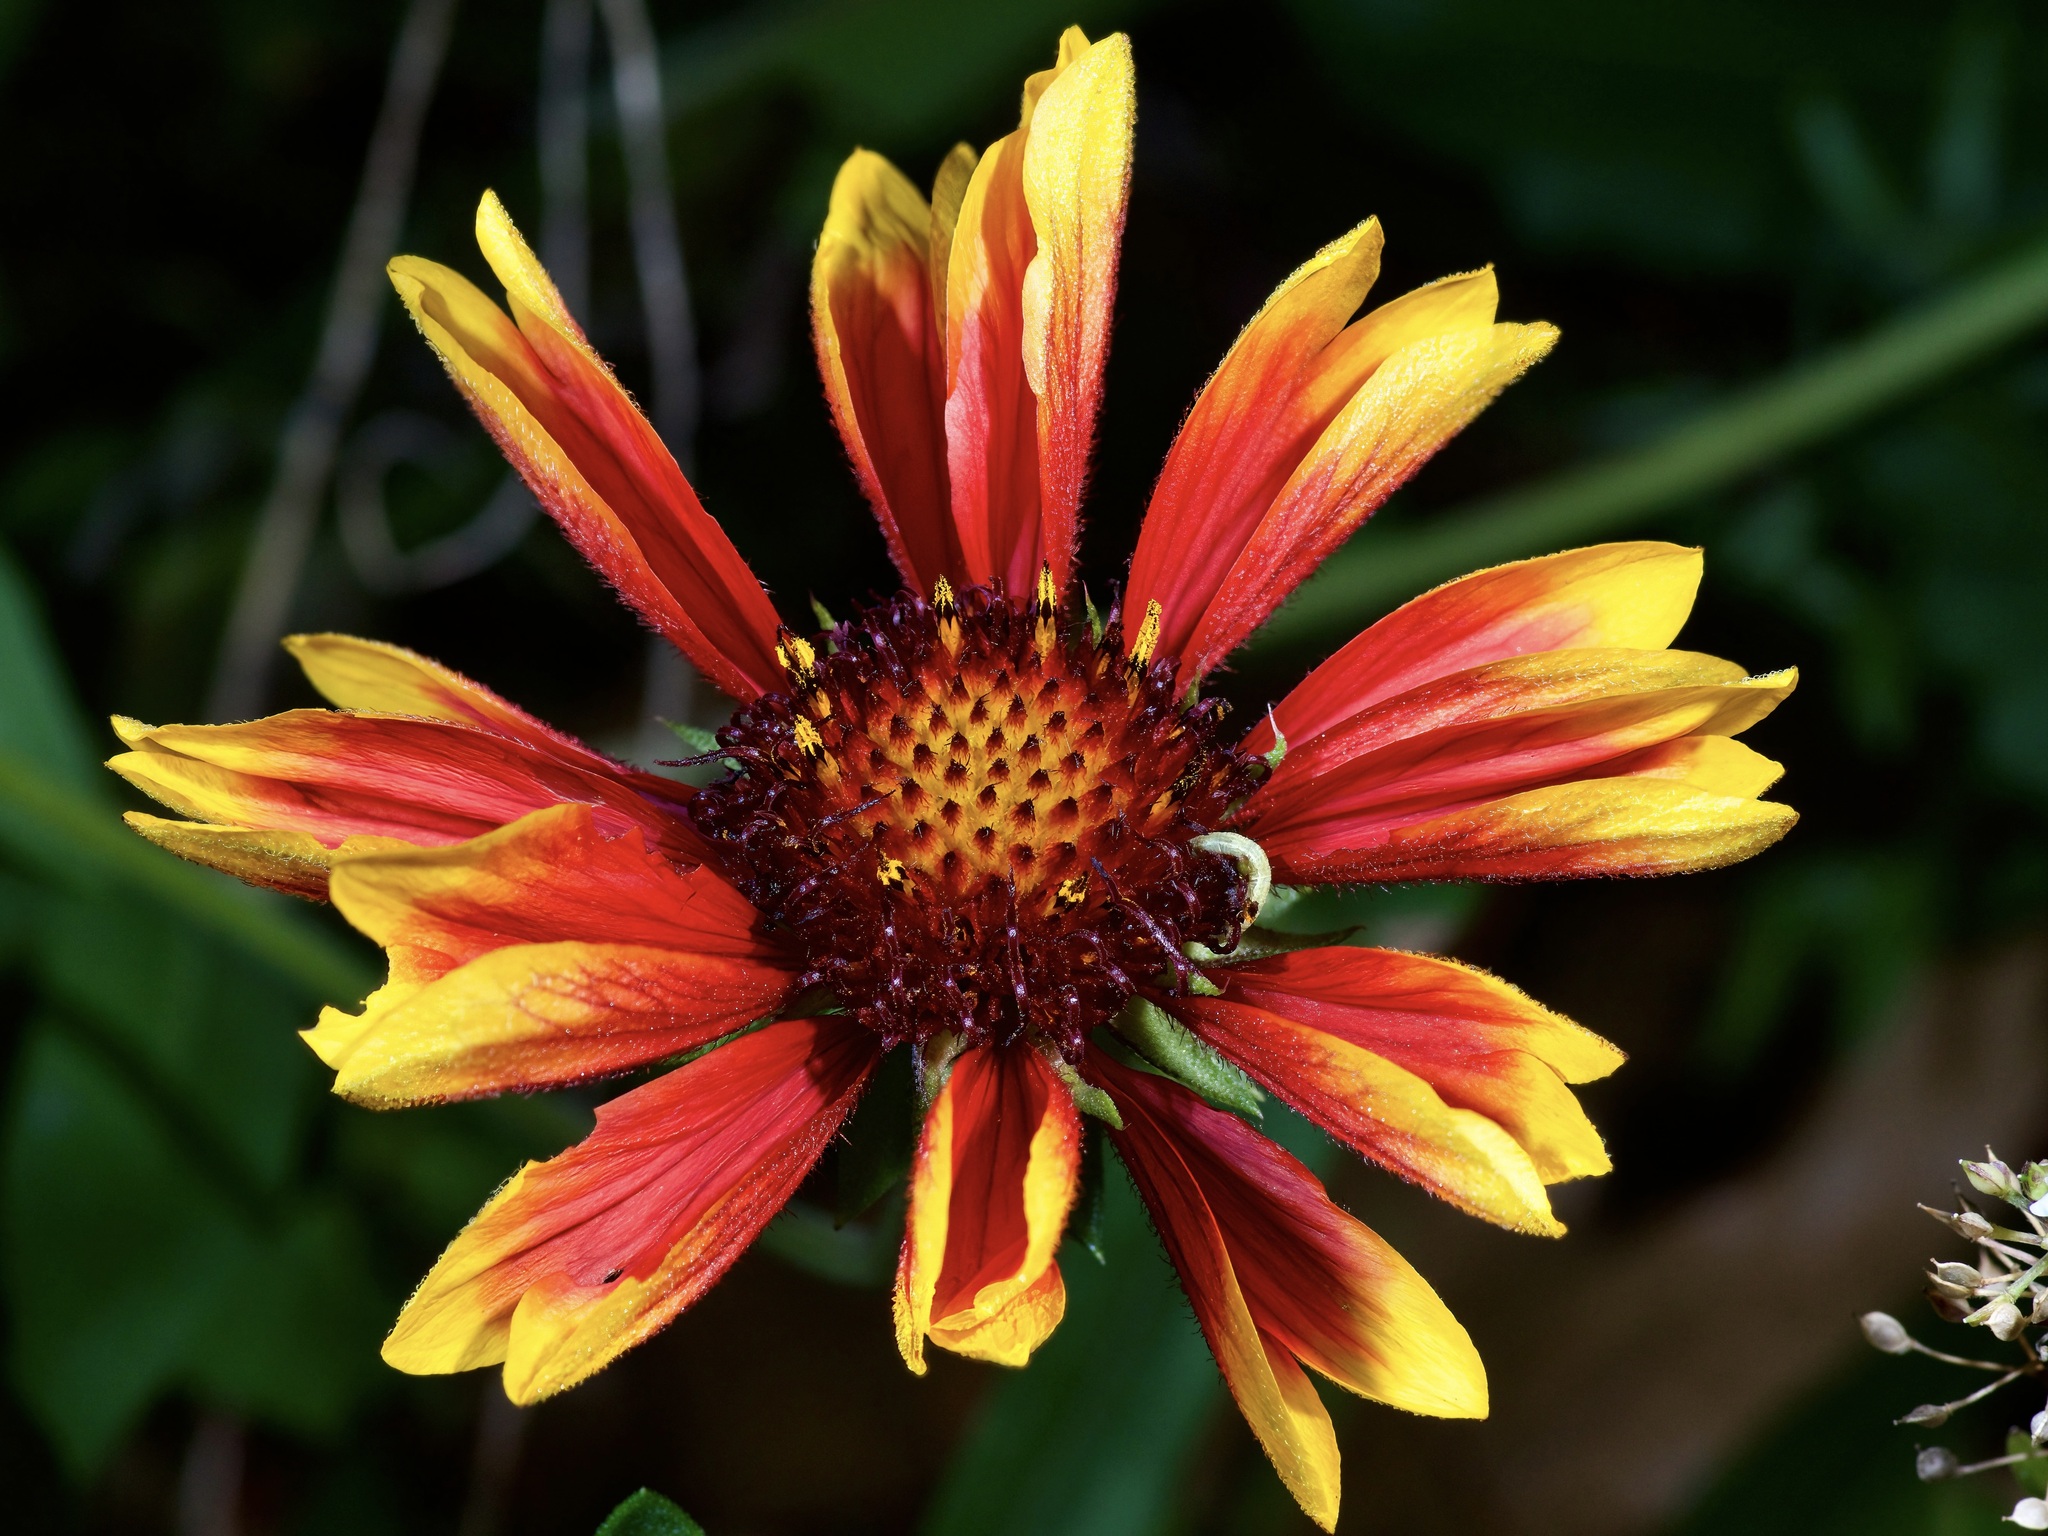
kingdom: Plantae
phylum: Tracheophyta
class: Magnoliopsida
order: Asterales
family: Asteraceae
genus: Gaillardia
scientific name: Gaillardia pulchella
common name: Firewheel
